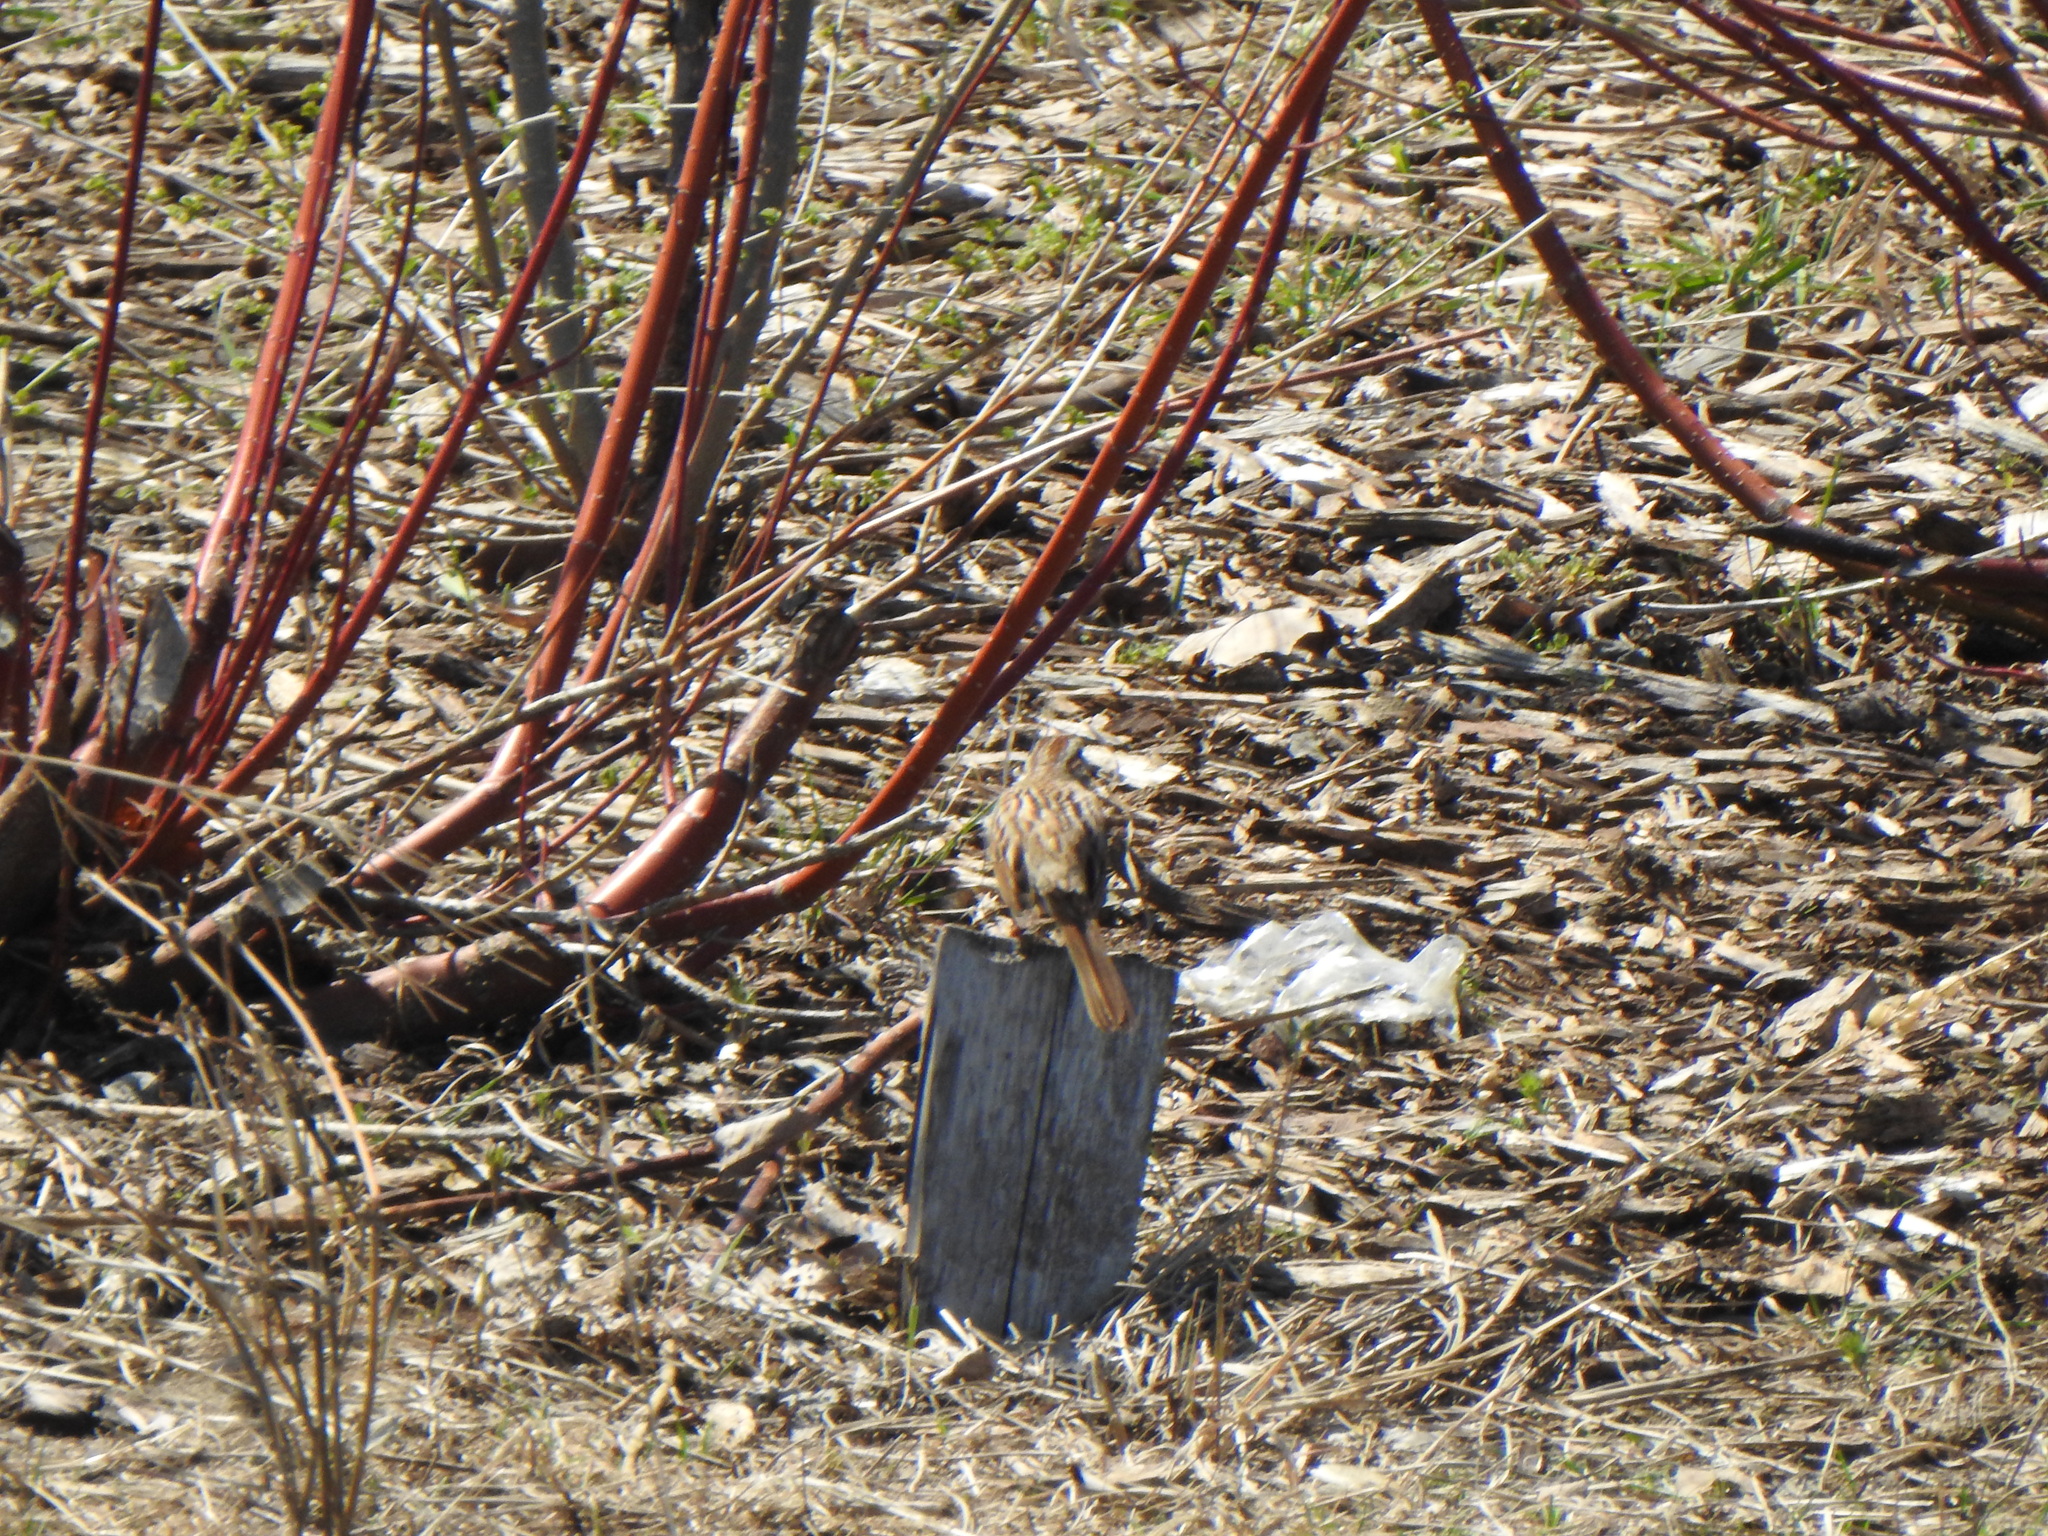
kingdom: Animalia
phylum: Chordata
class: Aves
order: Passeriformes
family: Passerellidae
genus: Melospiza
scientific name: Melospiza melodia
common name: Song sparrow
